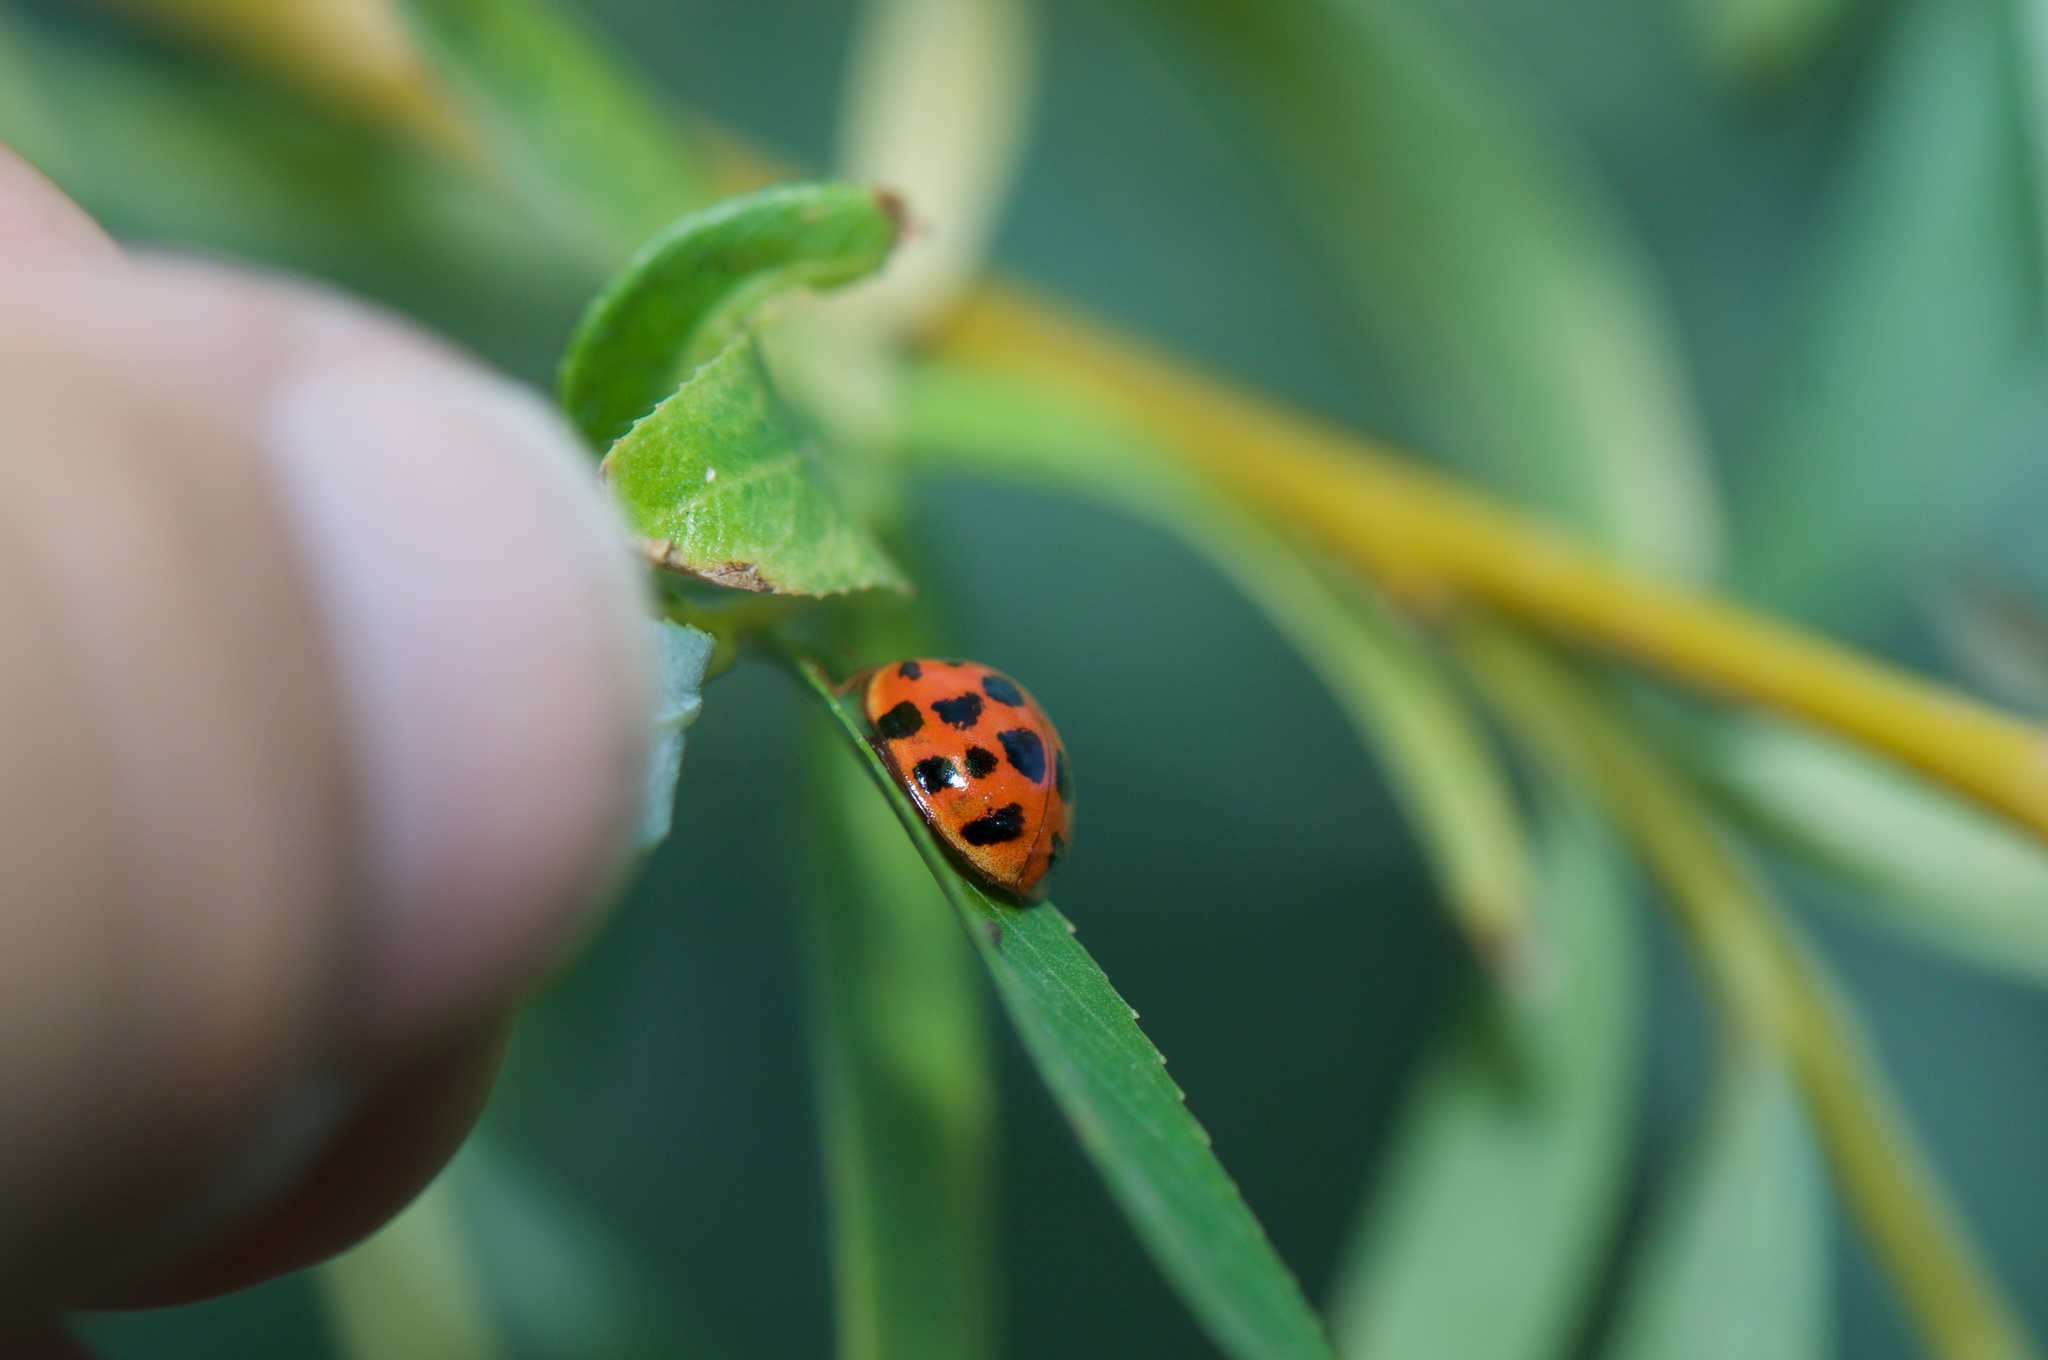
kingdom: Animalia
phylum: Arthropoda
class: Insecta
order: Coleoptera
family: Coccinellidae
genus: Harmonia
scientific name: Harmonia axyridis
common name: Harlequin ladybird
